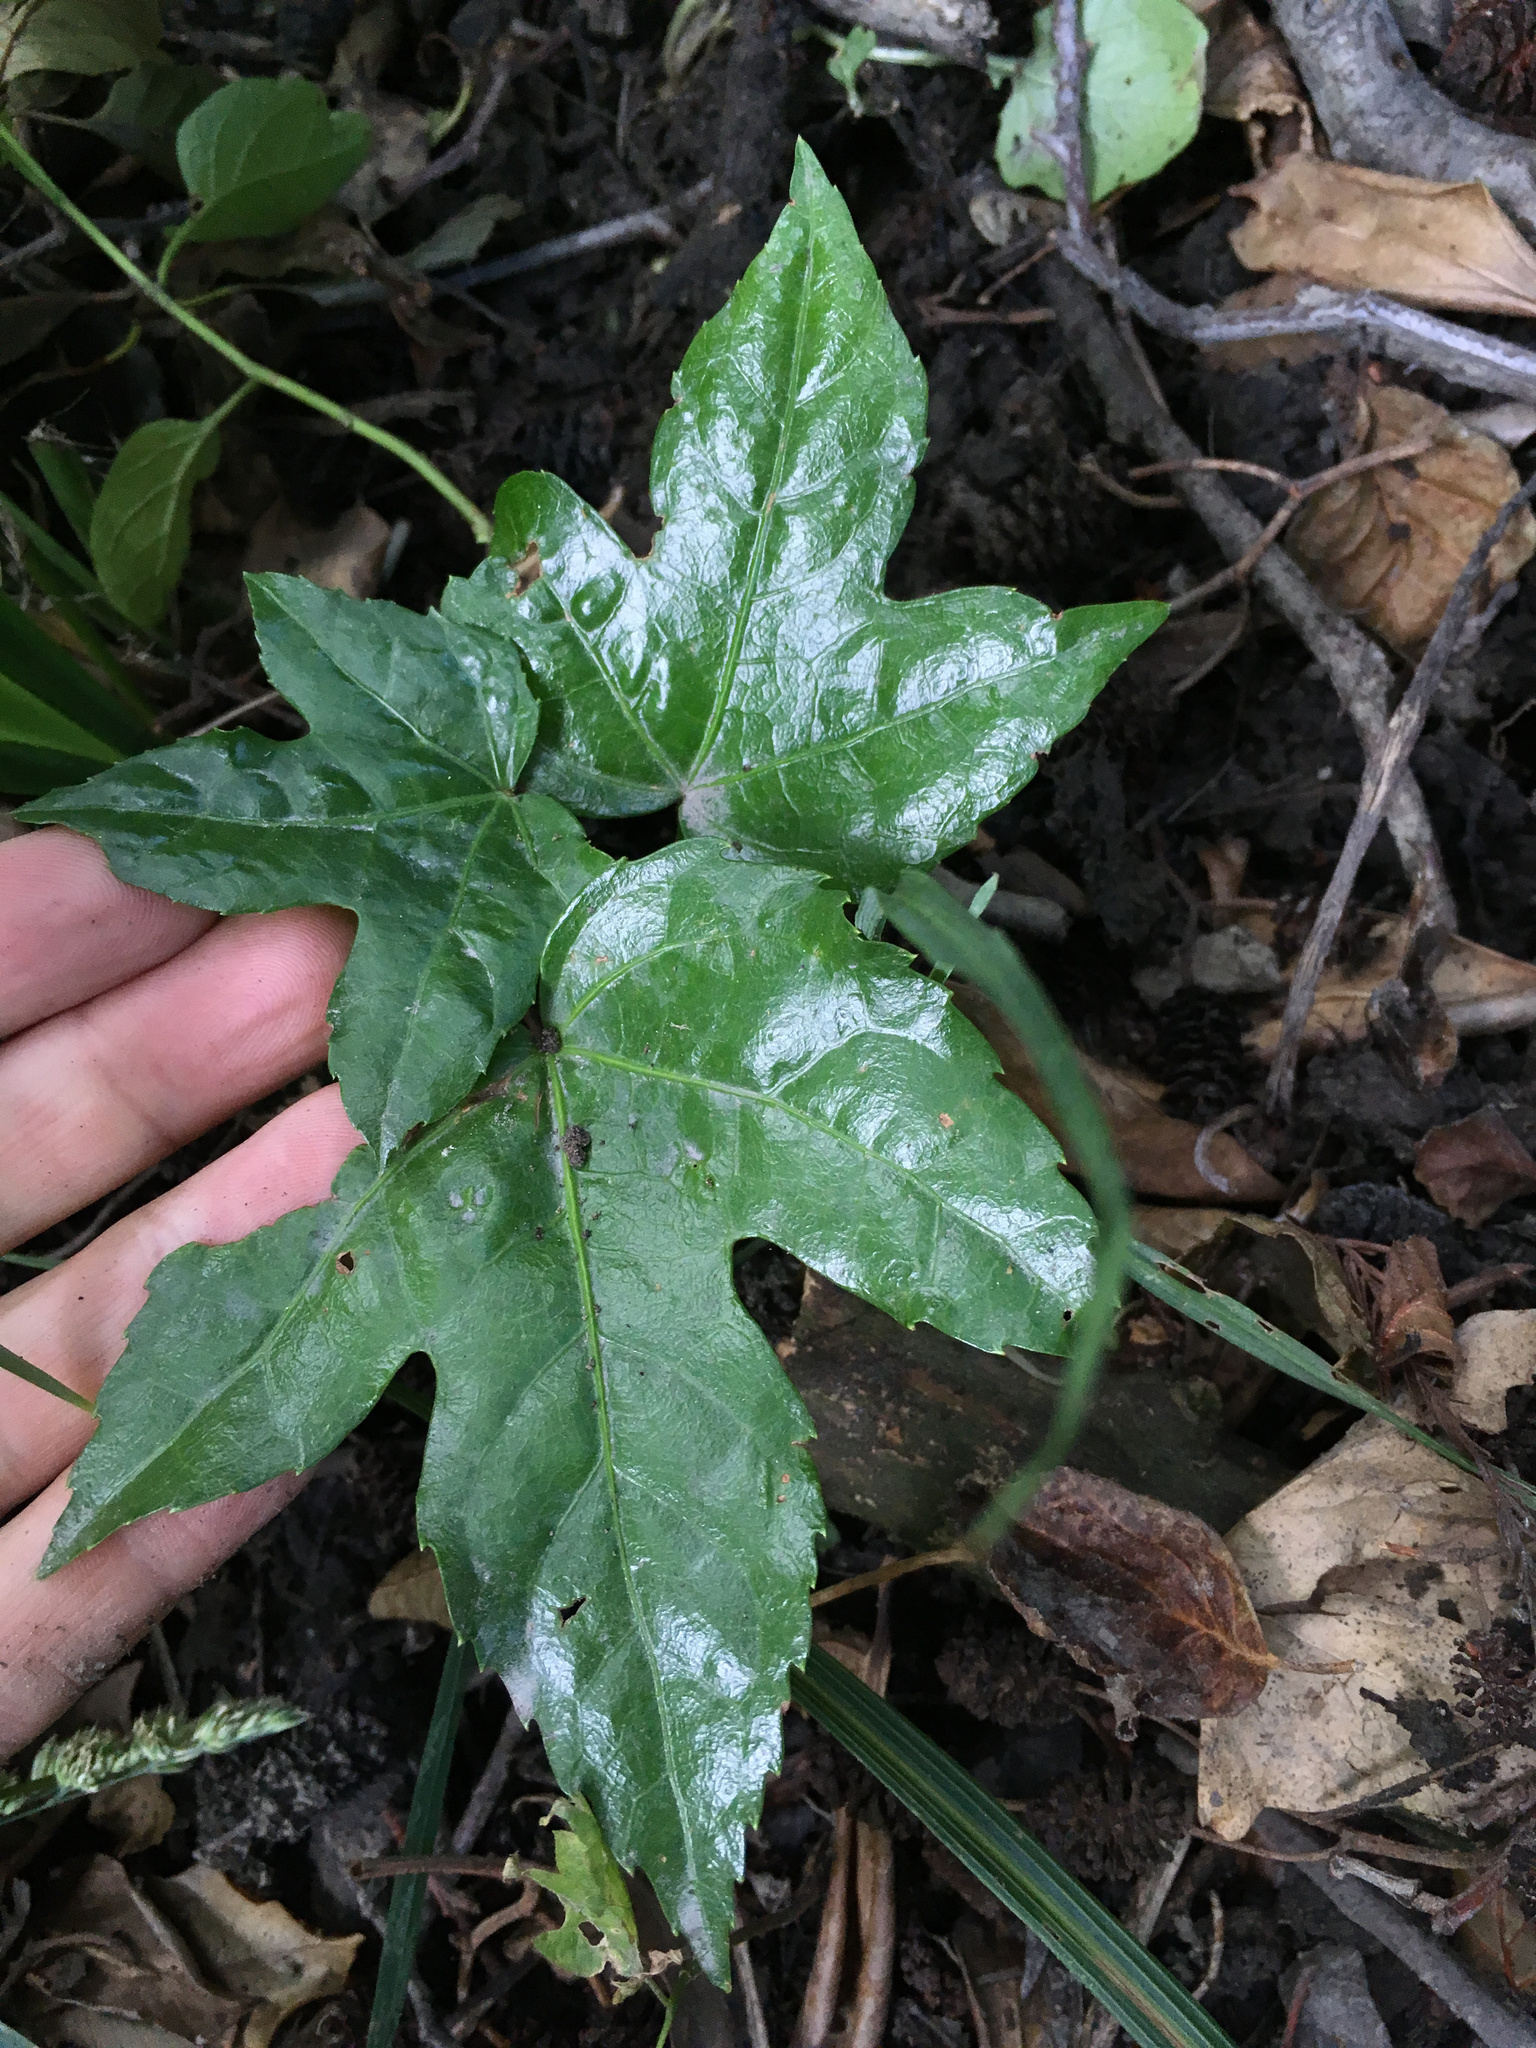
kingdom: Plantae
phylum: Tracheophyta
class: Magnoliopsida
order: Apiales
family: Araliaceae
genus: Fatsia
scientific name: Fatsia japonica
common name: Fatsia
